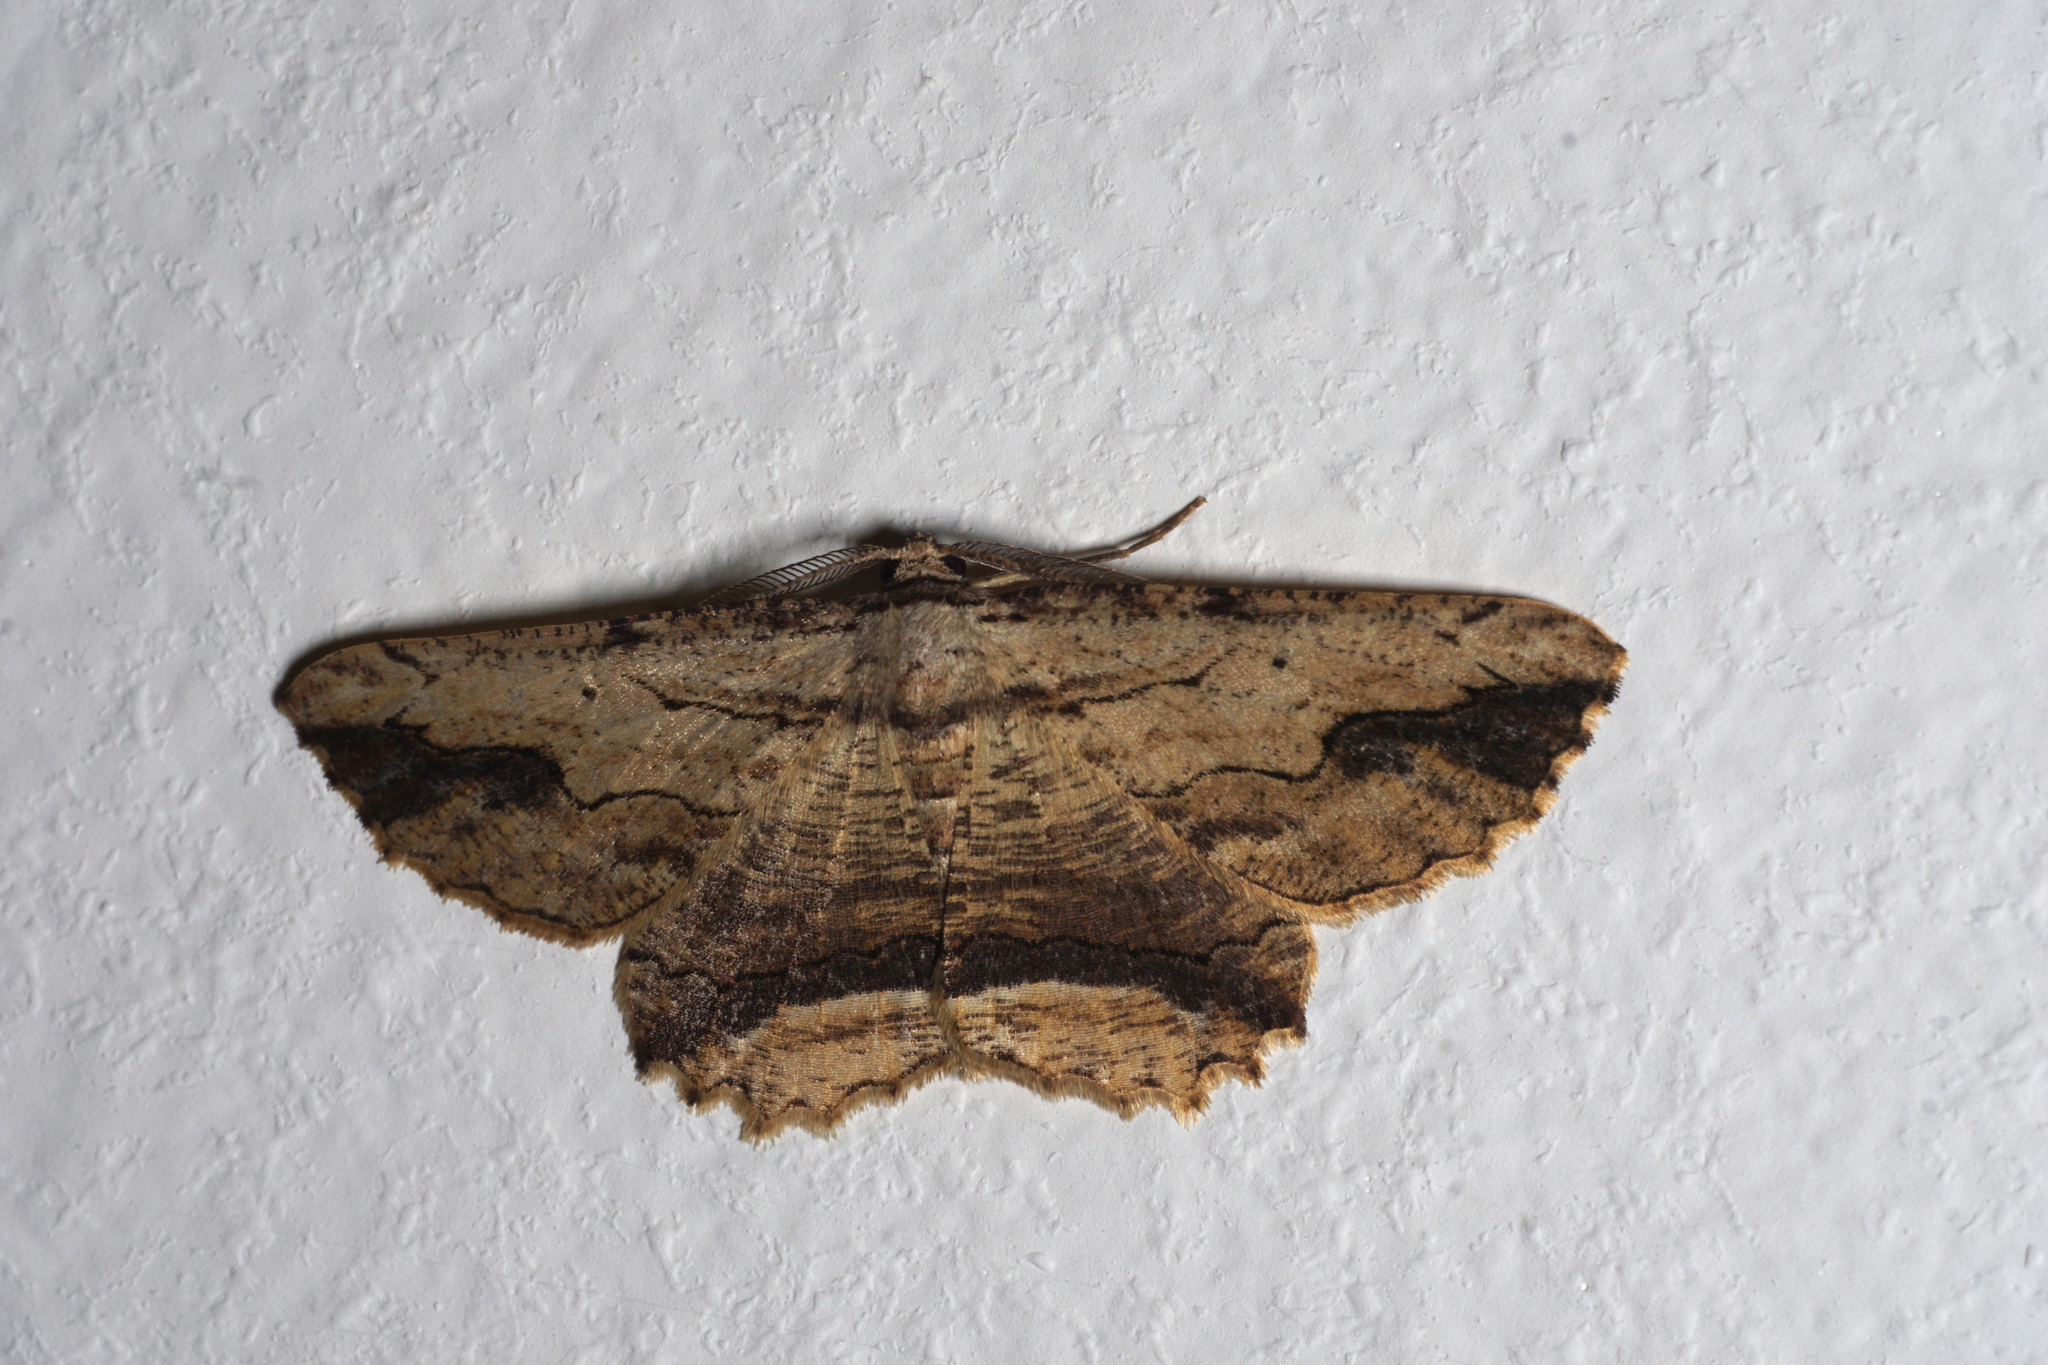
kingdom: Animalia
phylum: Arthropoda
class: Insecta
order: Lepidoptera
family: Geometridae
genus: Menophra
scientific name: Menophra abruptaria
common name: Waved umber
